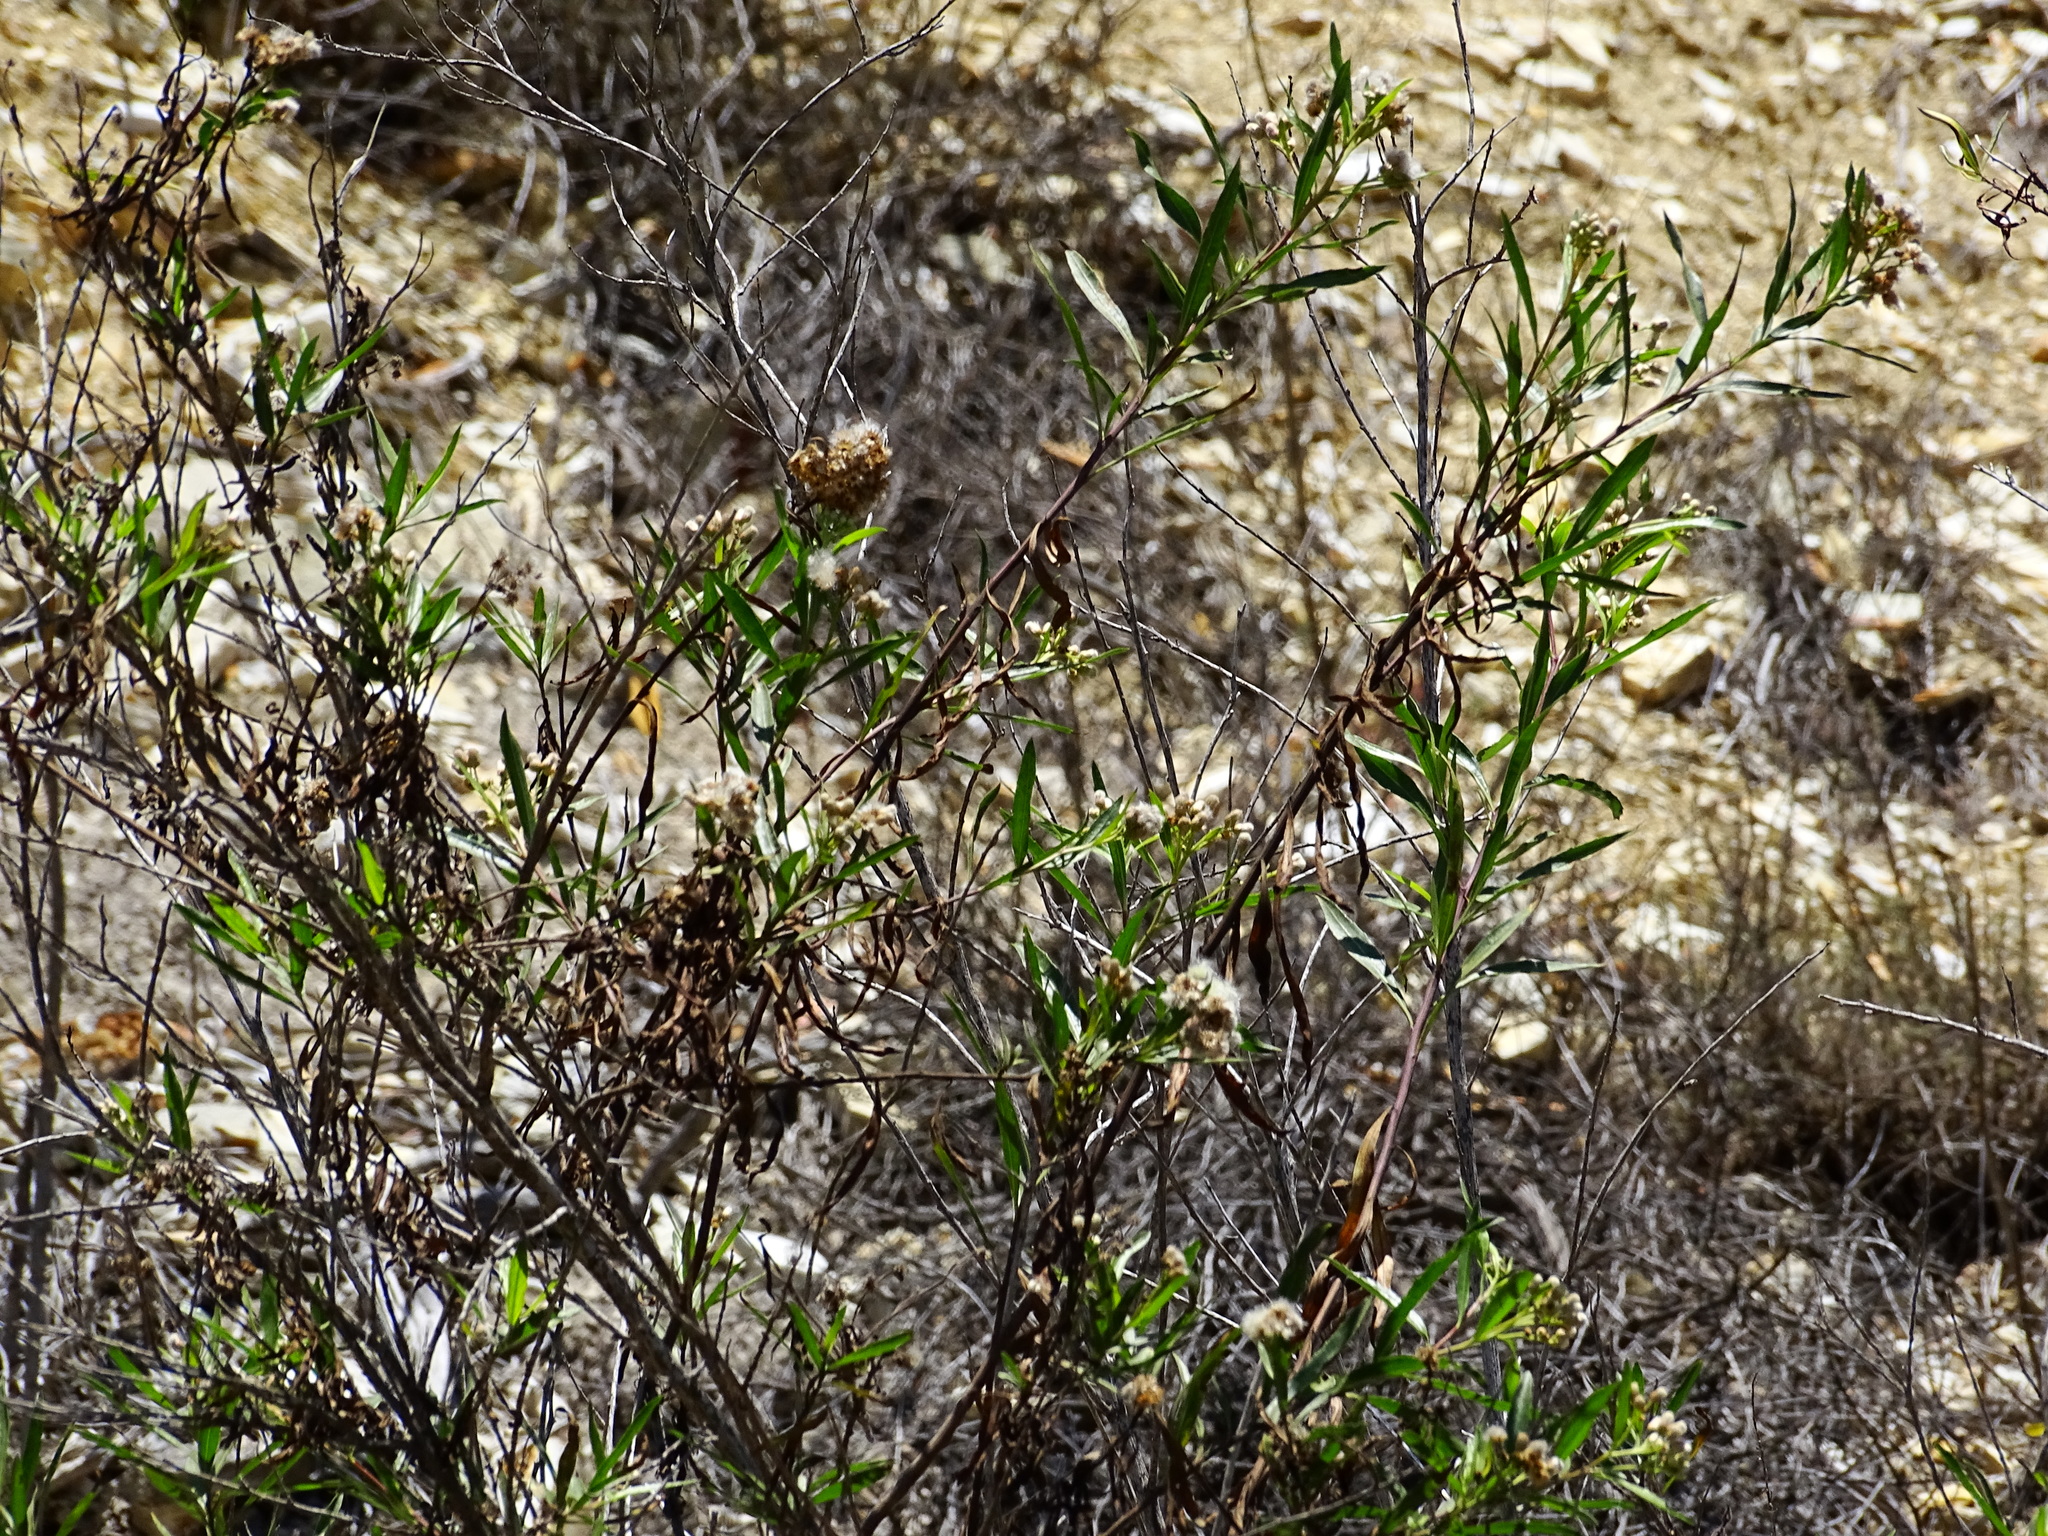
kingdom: Plantae
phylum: Tracheophyta
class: Magnoliopsida
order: Asterales
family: Asteraceae
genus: Baccharis
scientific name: Baccharis salicifolia
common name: Sticky baccharis
